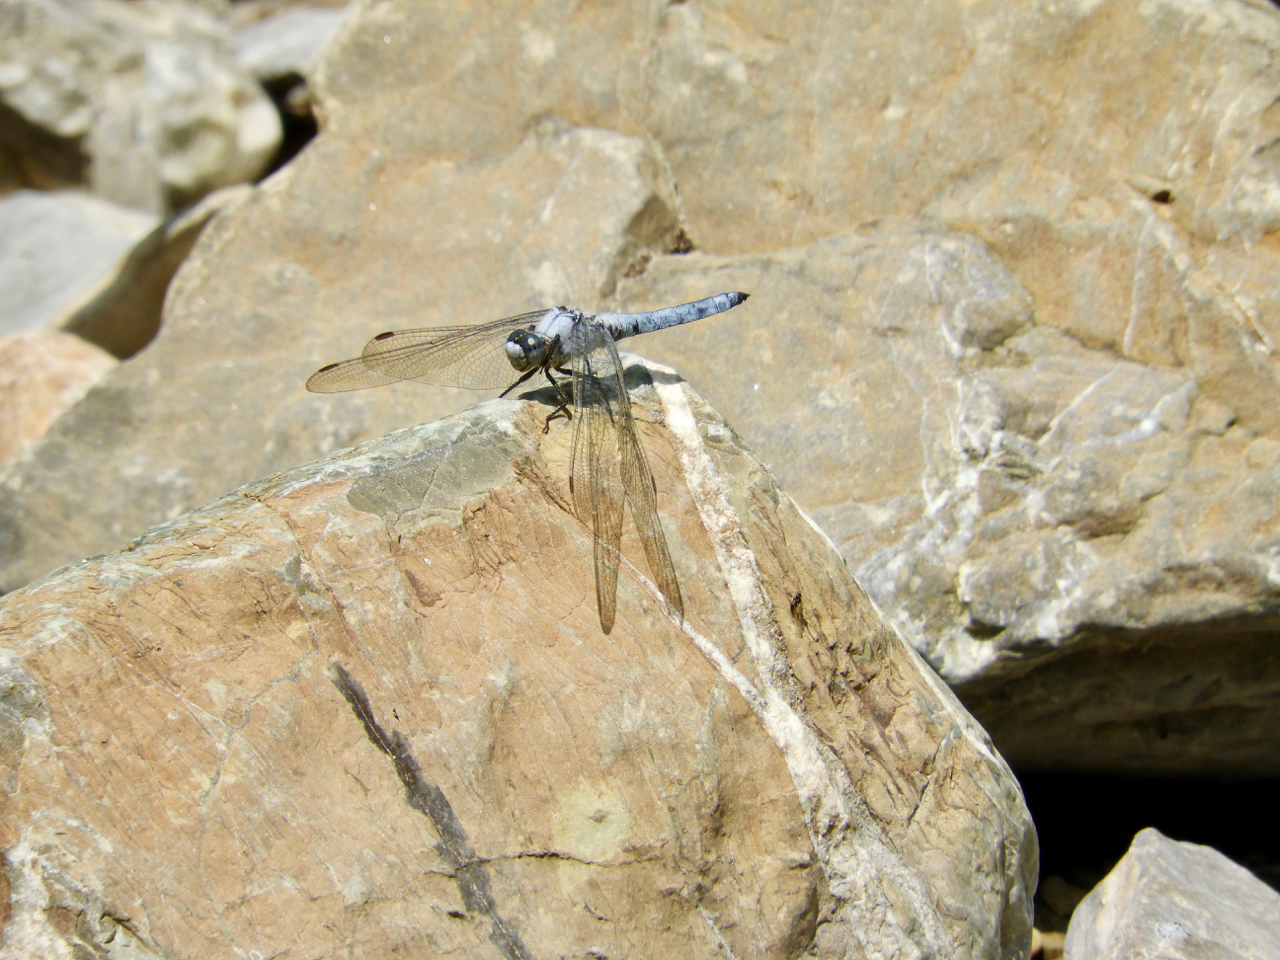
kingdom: Animalia
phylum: Arthropoda
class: Insecta
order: Odonata
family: Libellulidae
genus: Orthetrum
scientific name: Orthetrum brunneum
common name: Southern skimmer
